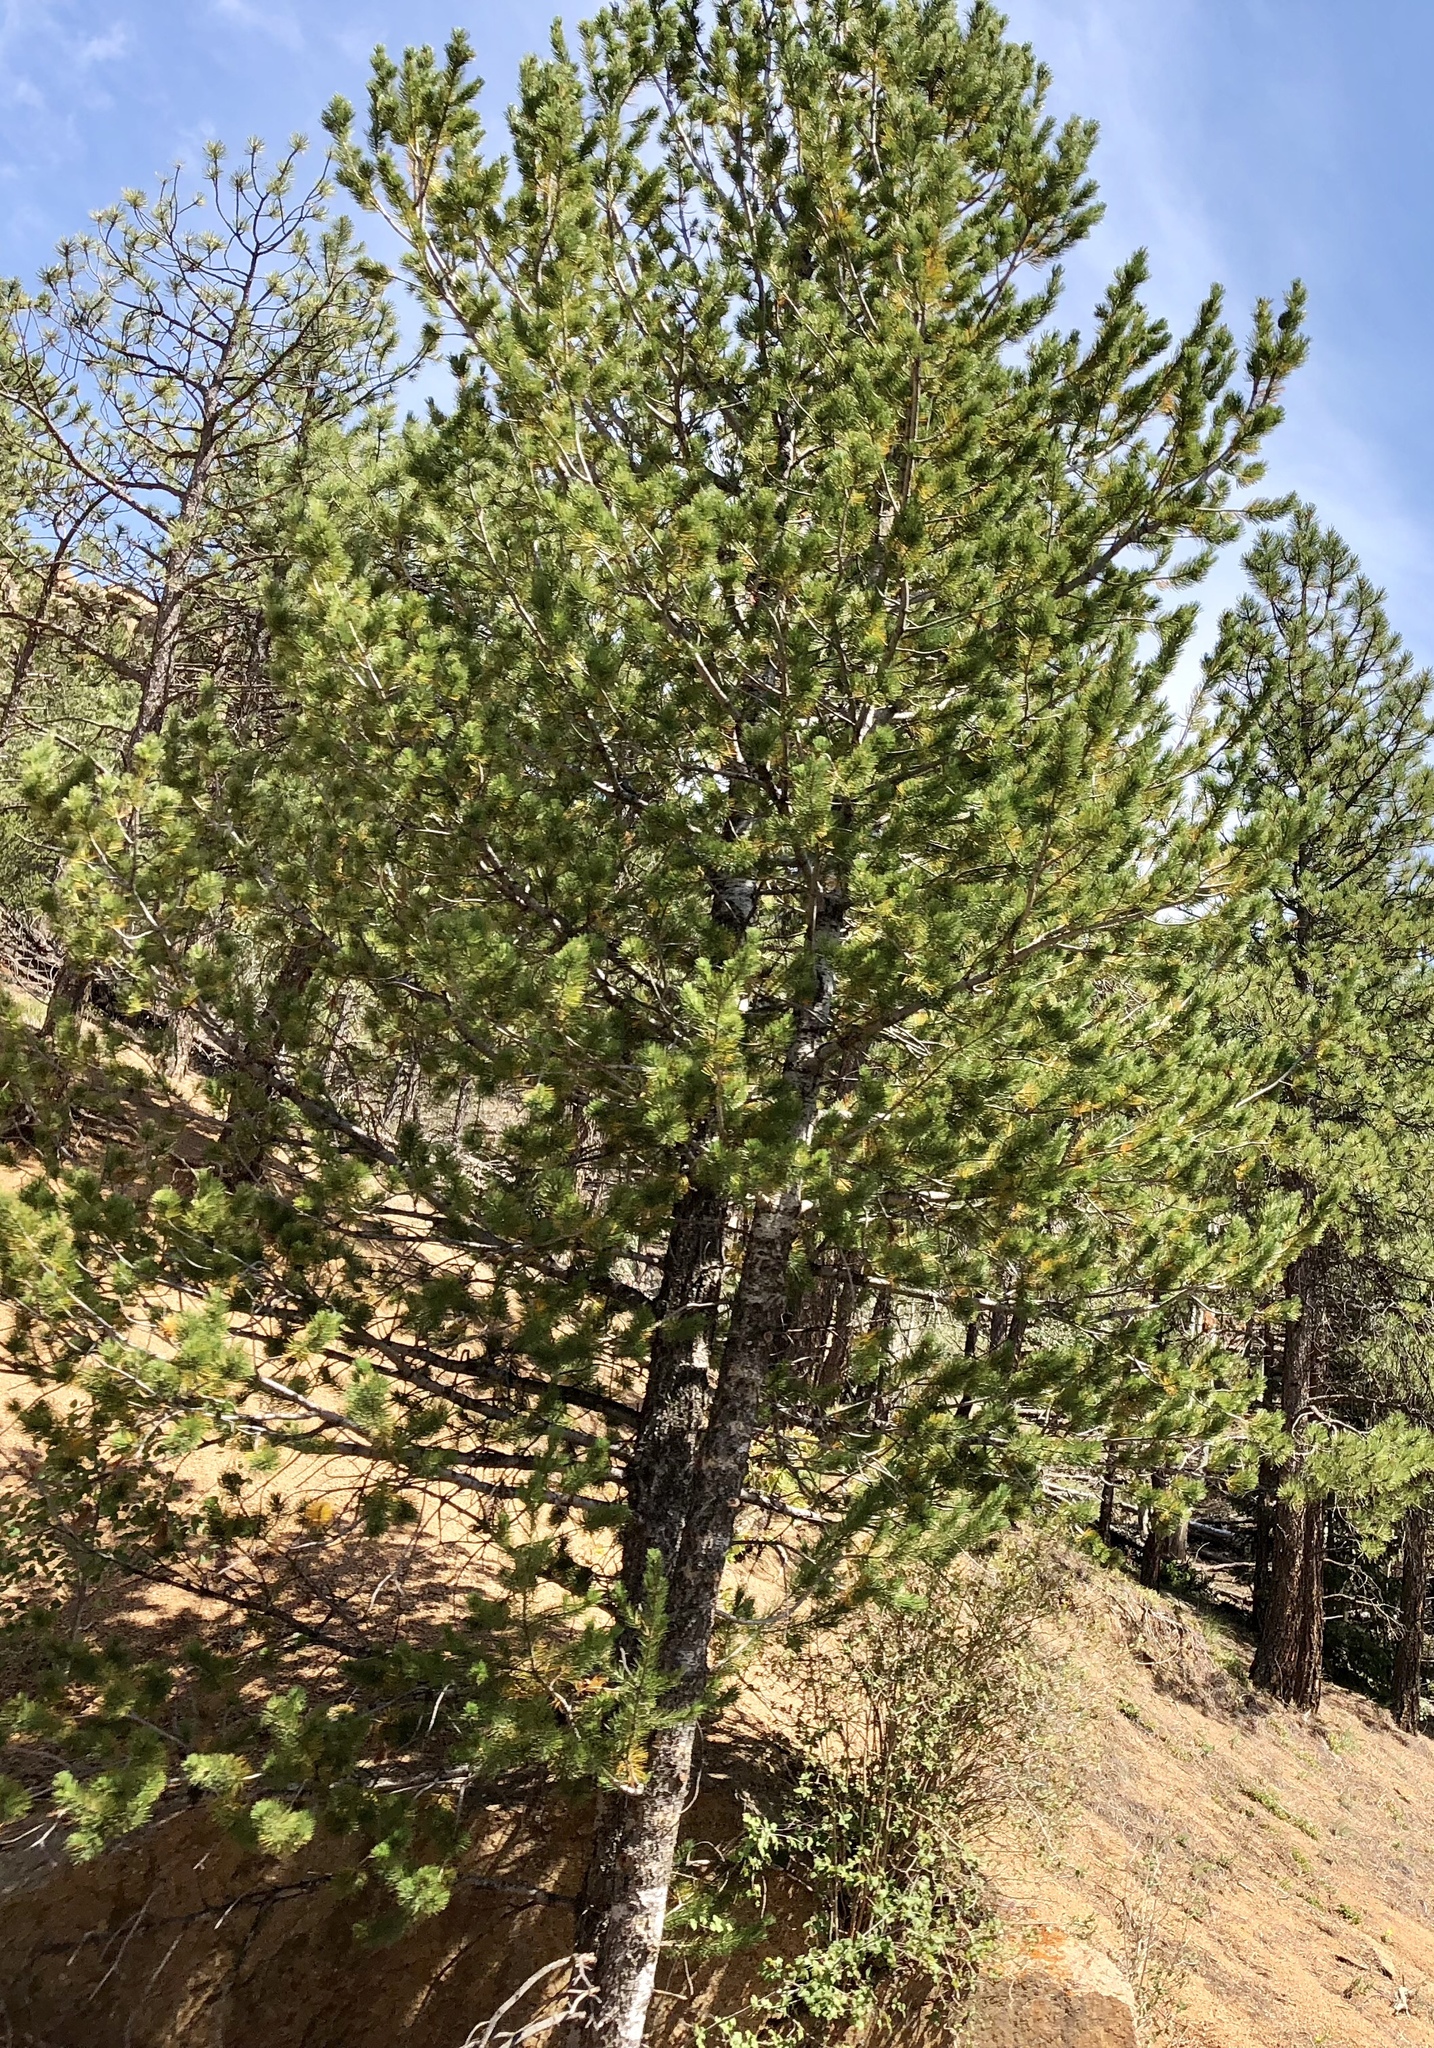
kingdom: Plantae
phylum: Tracheophyta
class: Pinopsida
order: Pinales
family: Pinaceae
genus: Pinus
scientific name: Pinus flexilis
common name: Limber pine
